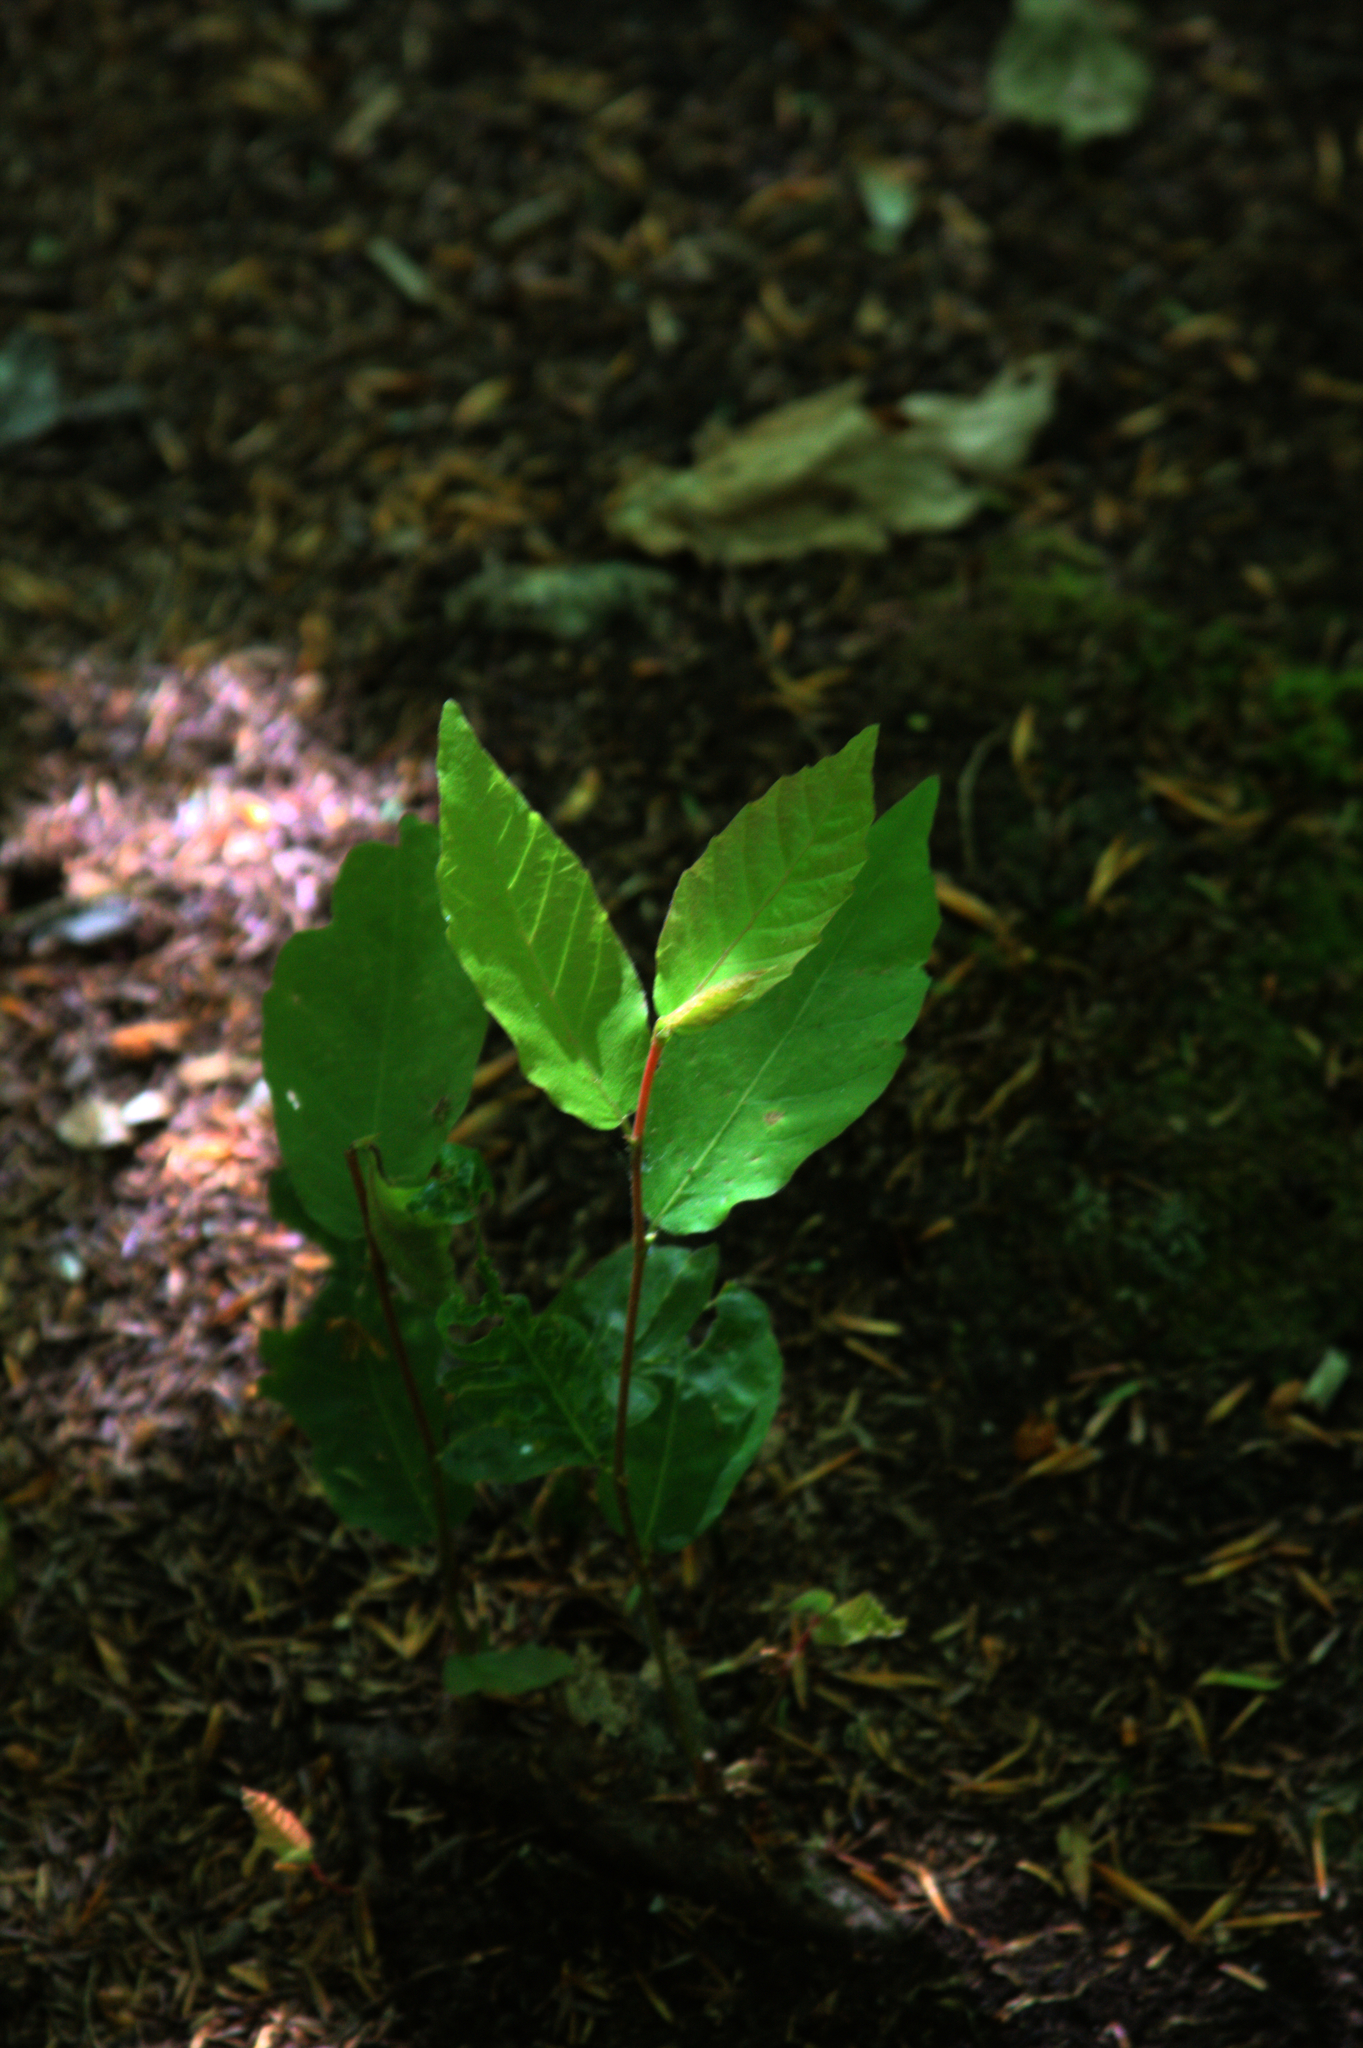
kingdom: Plantae
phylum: Tracheophyta
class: Magnoliopsida
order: Fagales
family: Fagaceae
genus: Fagus
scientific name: Fagus grandifolia
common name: American beech
